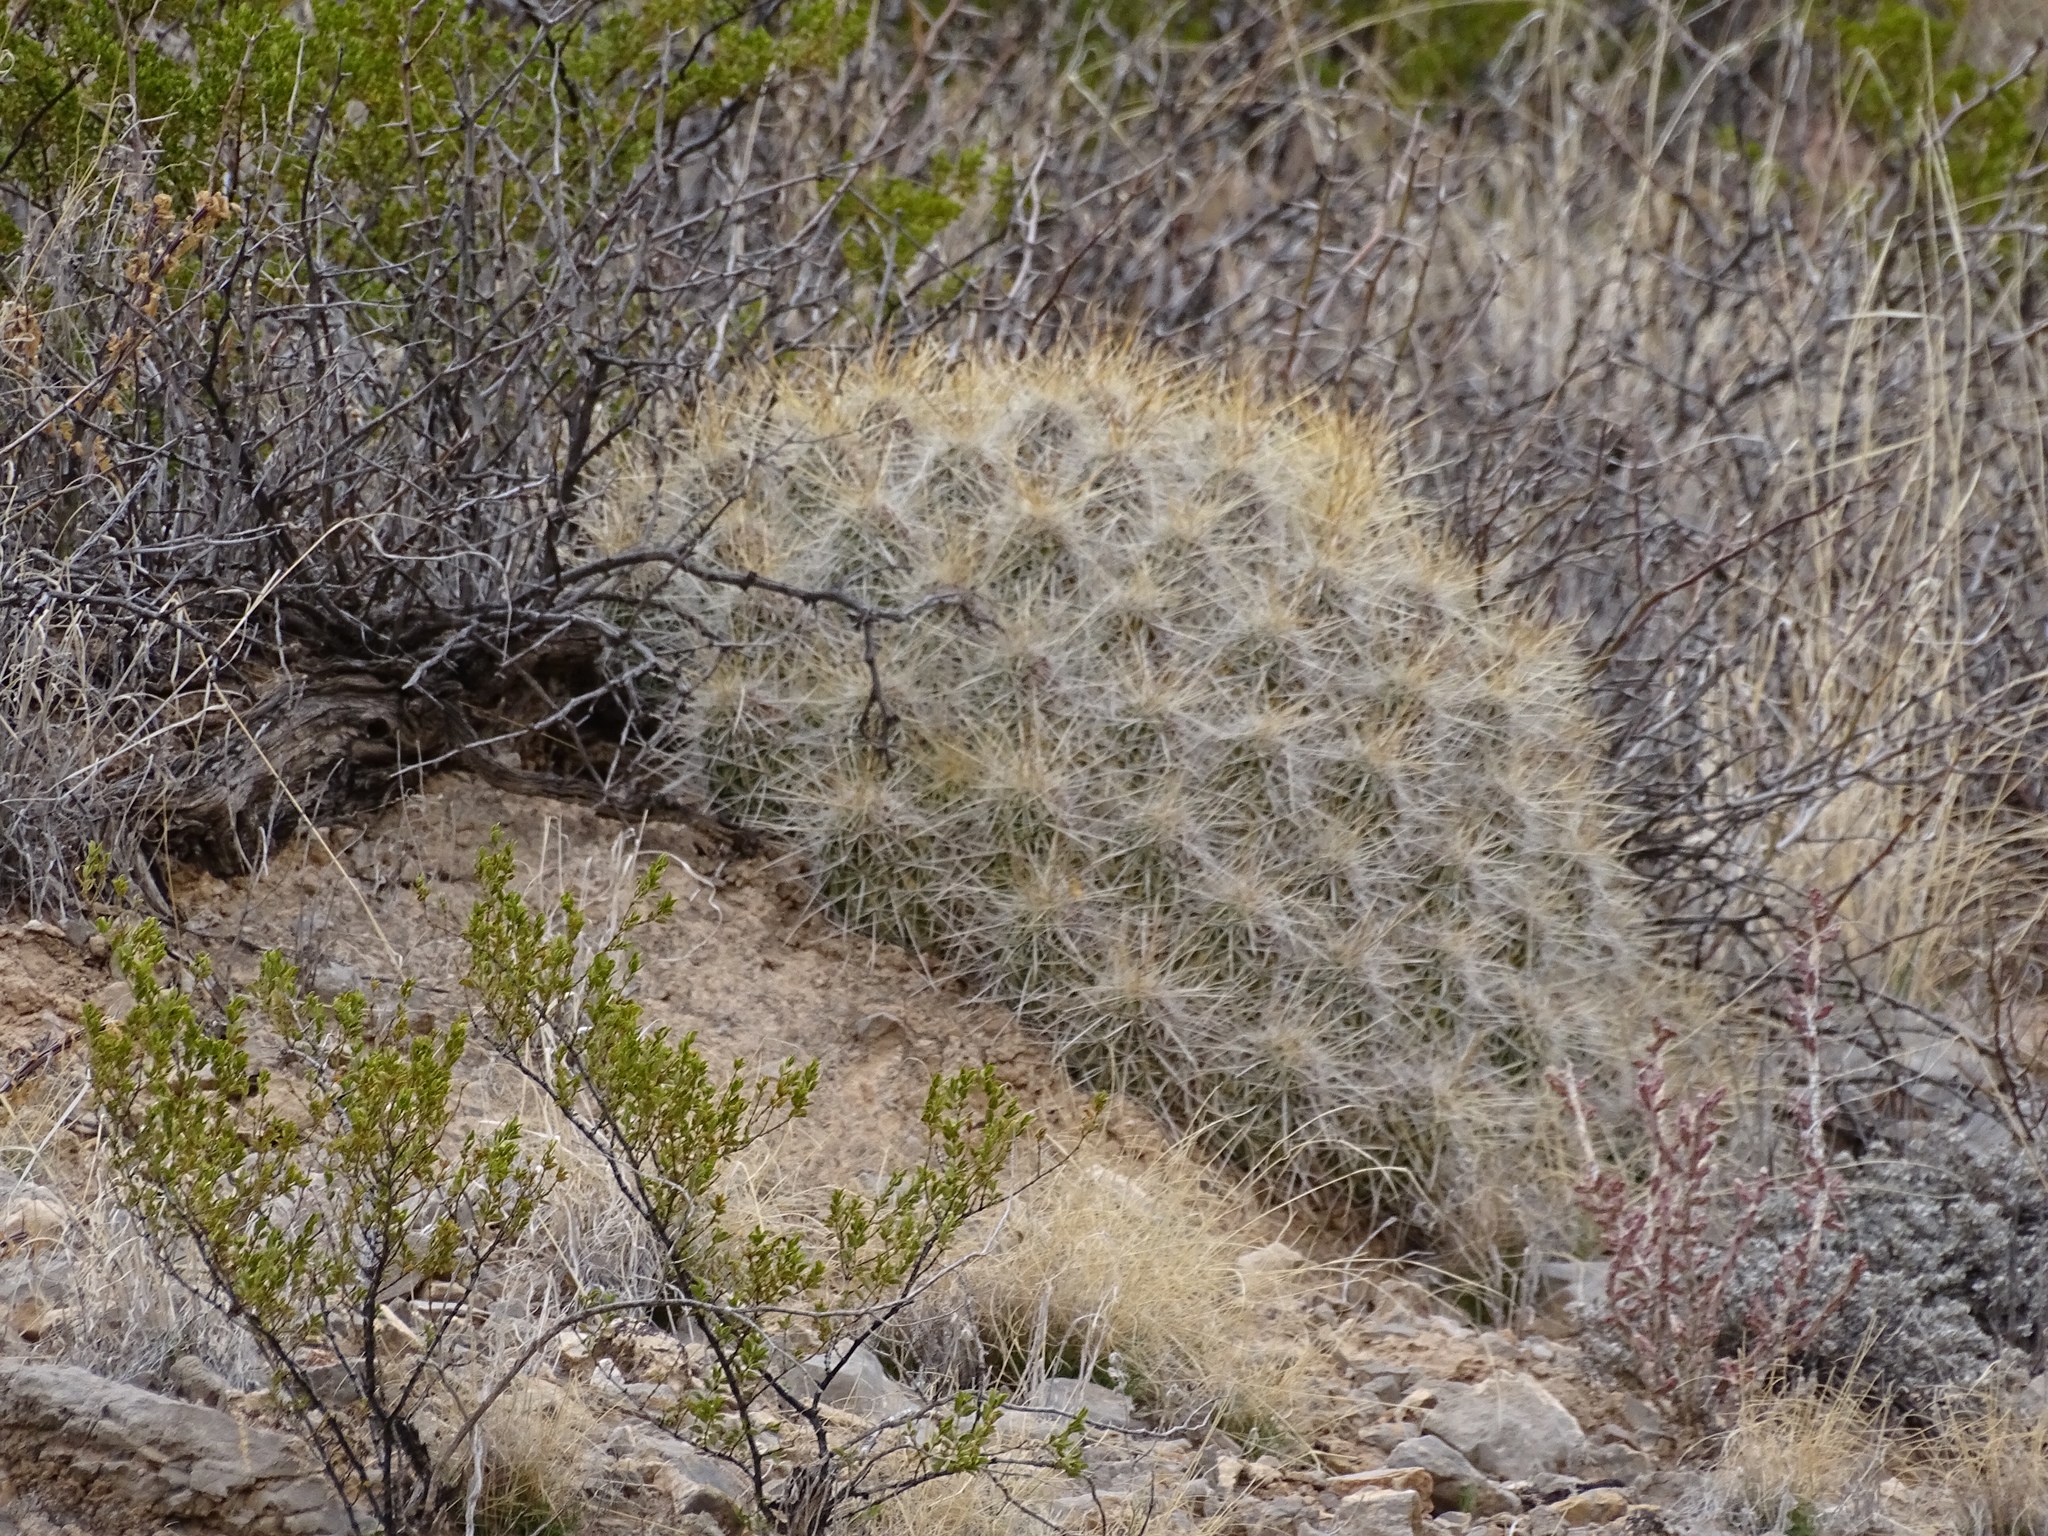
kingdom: Plantae
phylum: Tracheophyta
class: Magnoliopsida
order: Caryophyllales
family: Cactaceae
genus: Echinocereus
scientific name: Echinocereus stramineus
